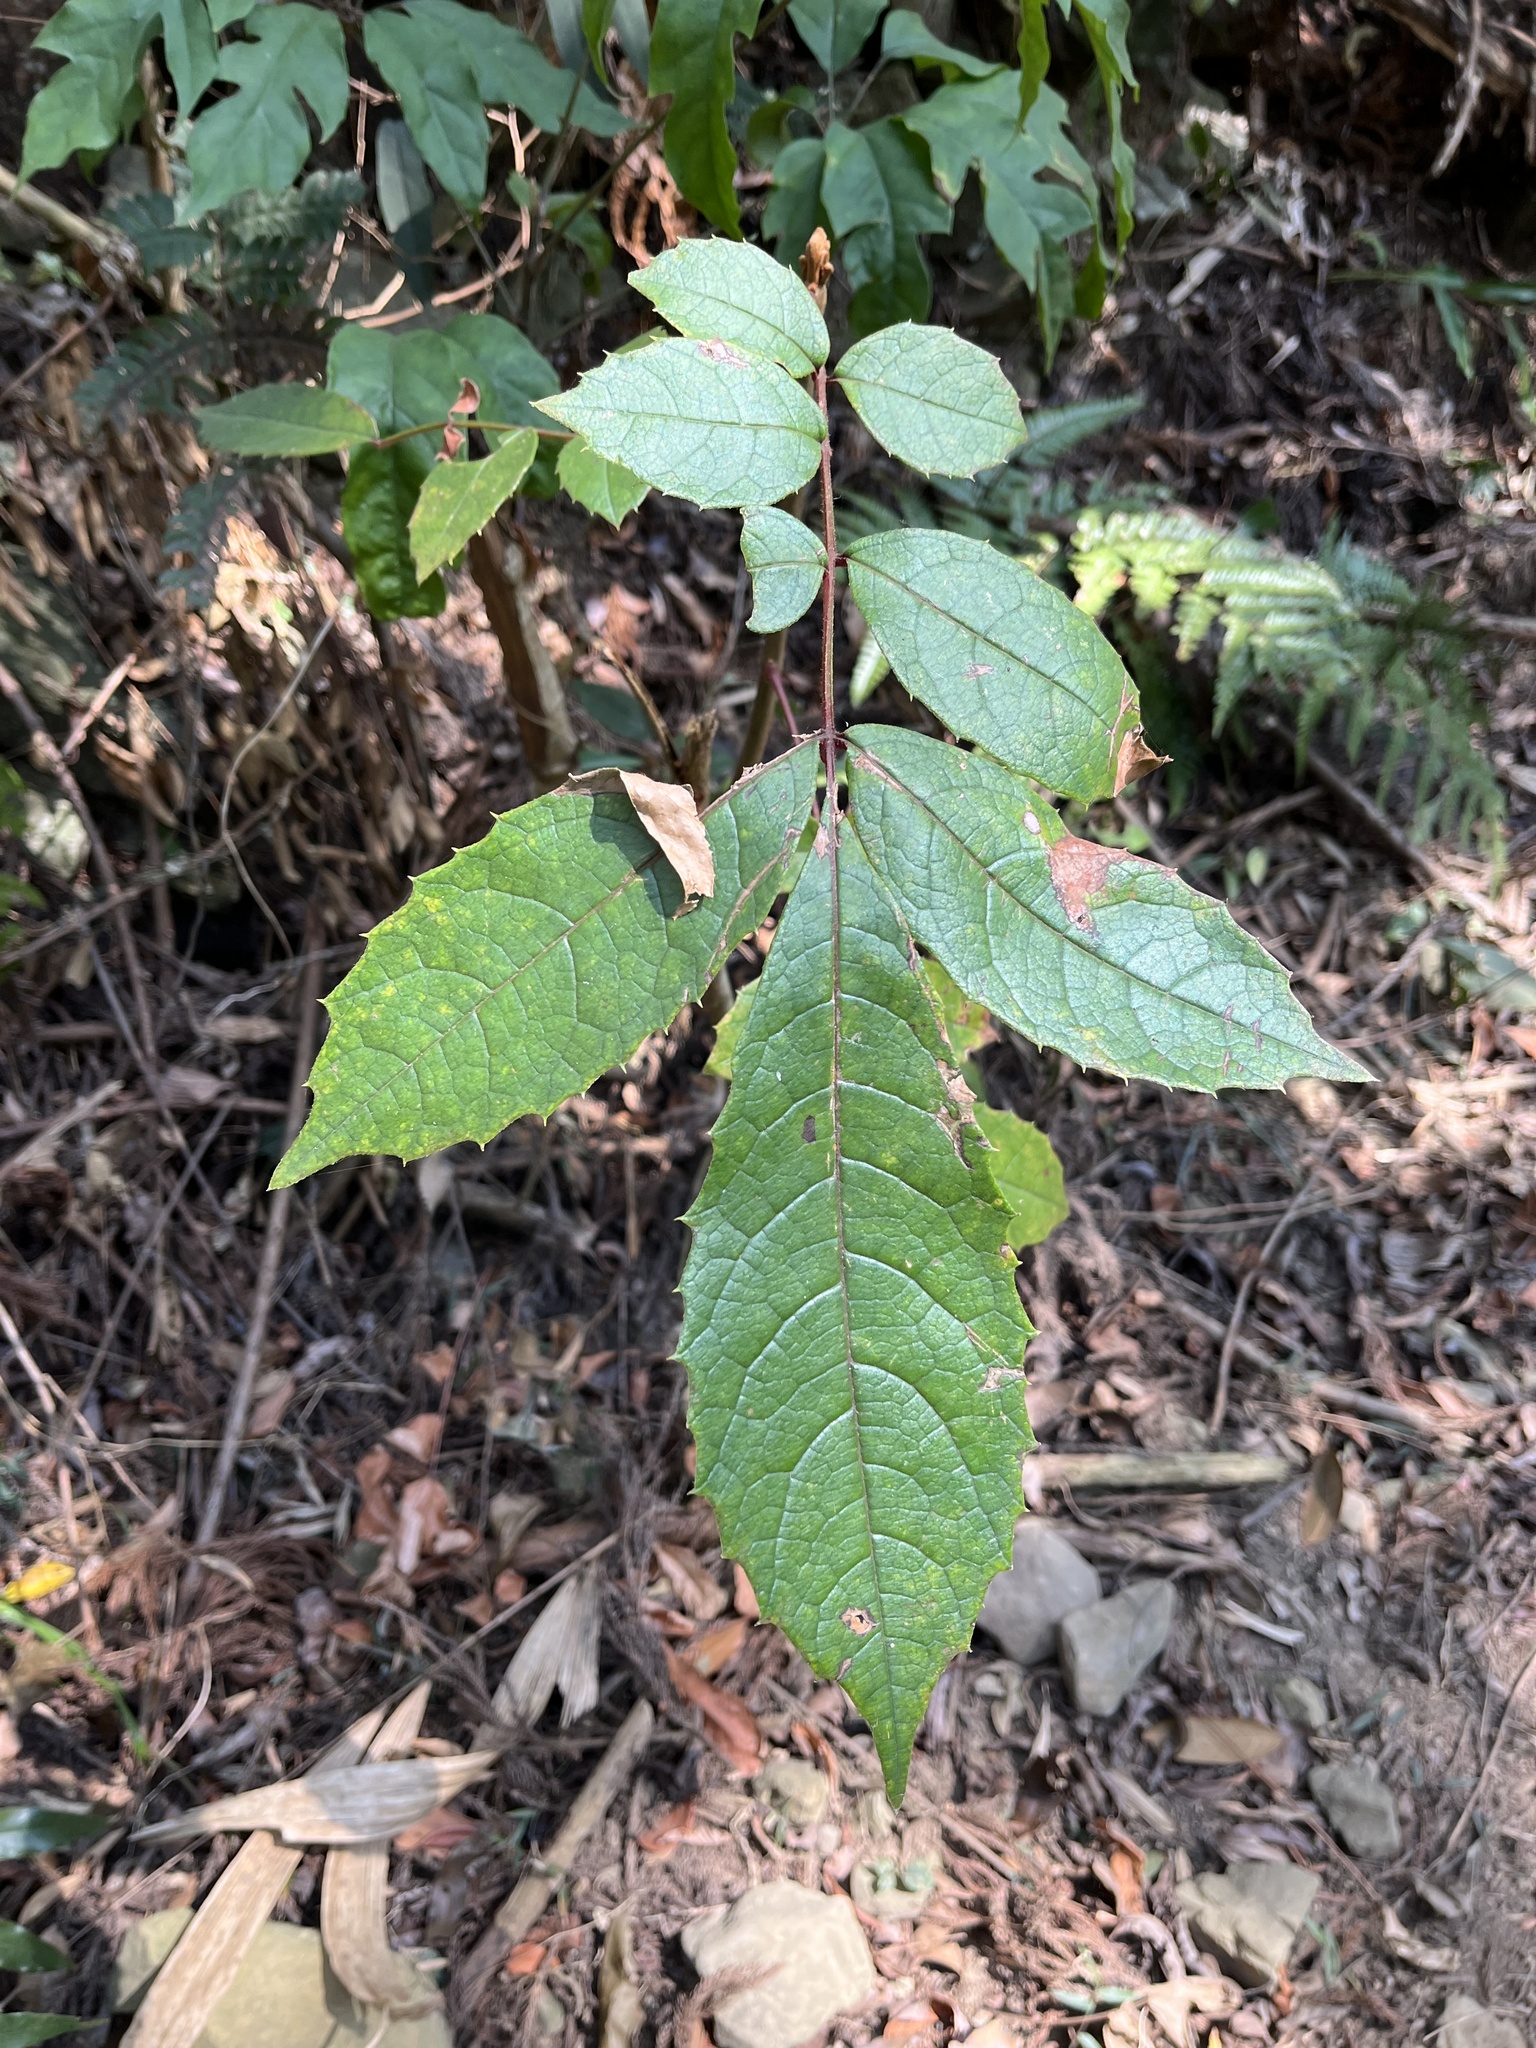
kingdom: Plantae
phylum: Tracheophyta
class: Magnoliopsida
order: Proteales
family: Sabiaceae
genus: Meliosma
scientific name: Meliosma rhoifolia
